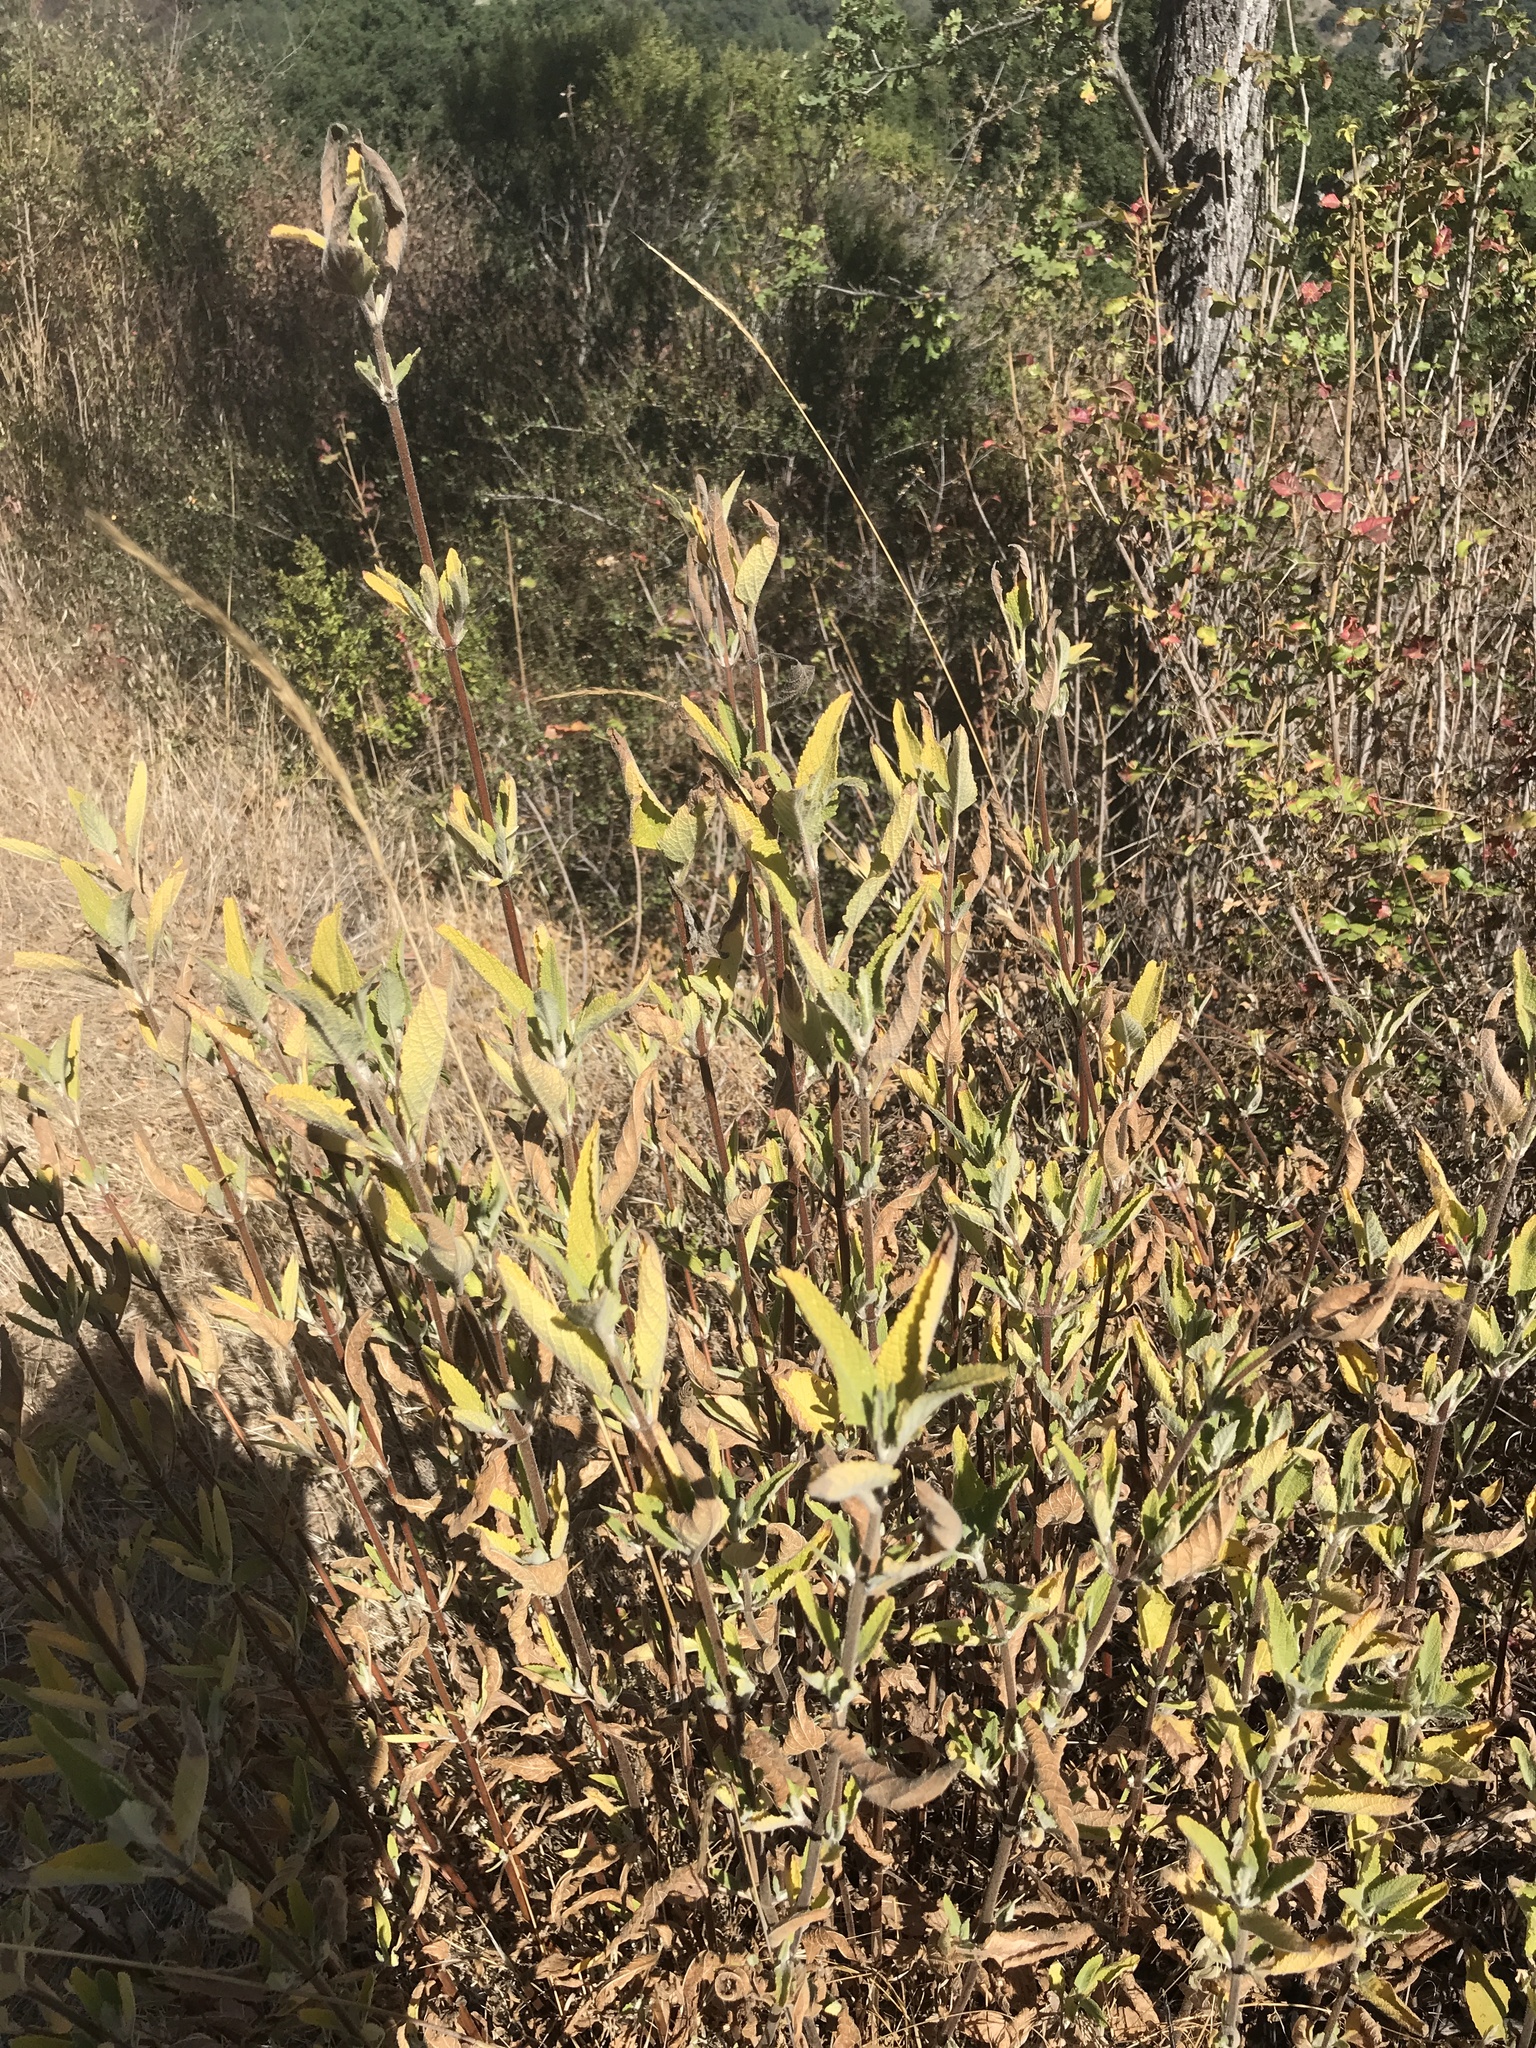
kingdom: Plantae
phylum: Tracheophyta
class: Magnoliopsida
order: Lamiales
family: Lamiaceae
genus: Lepechinia
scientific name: Lepechinia calycina
